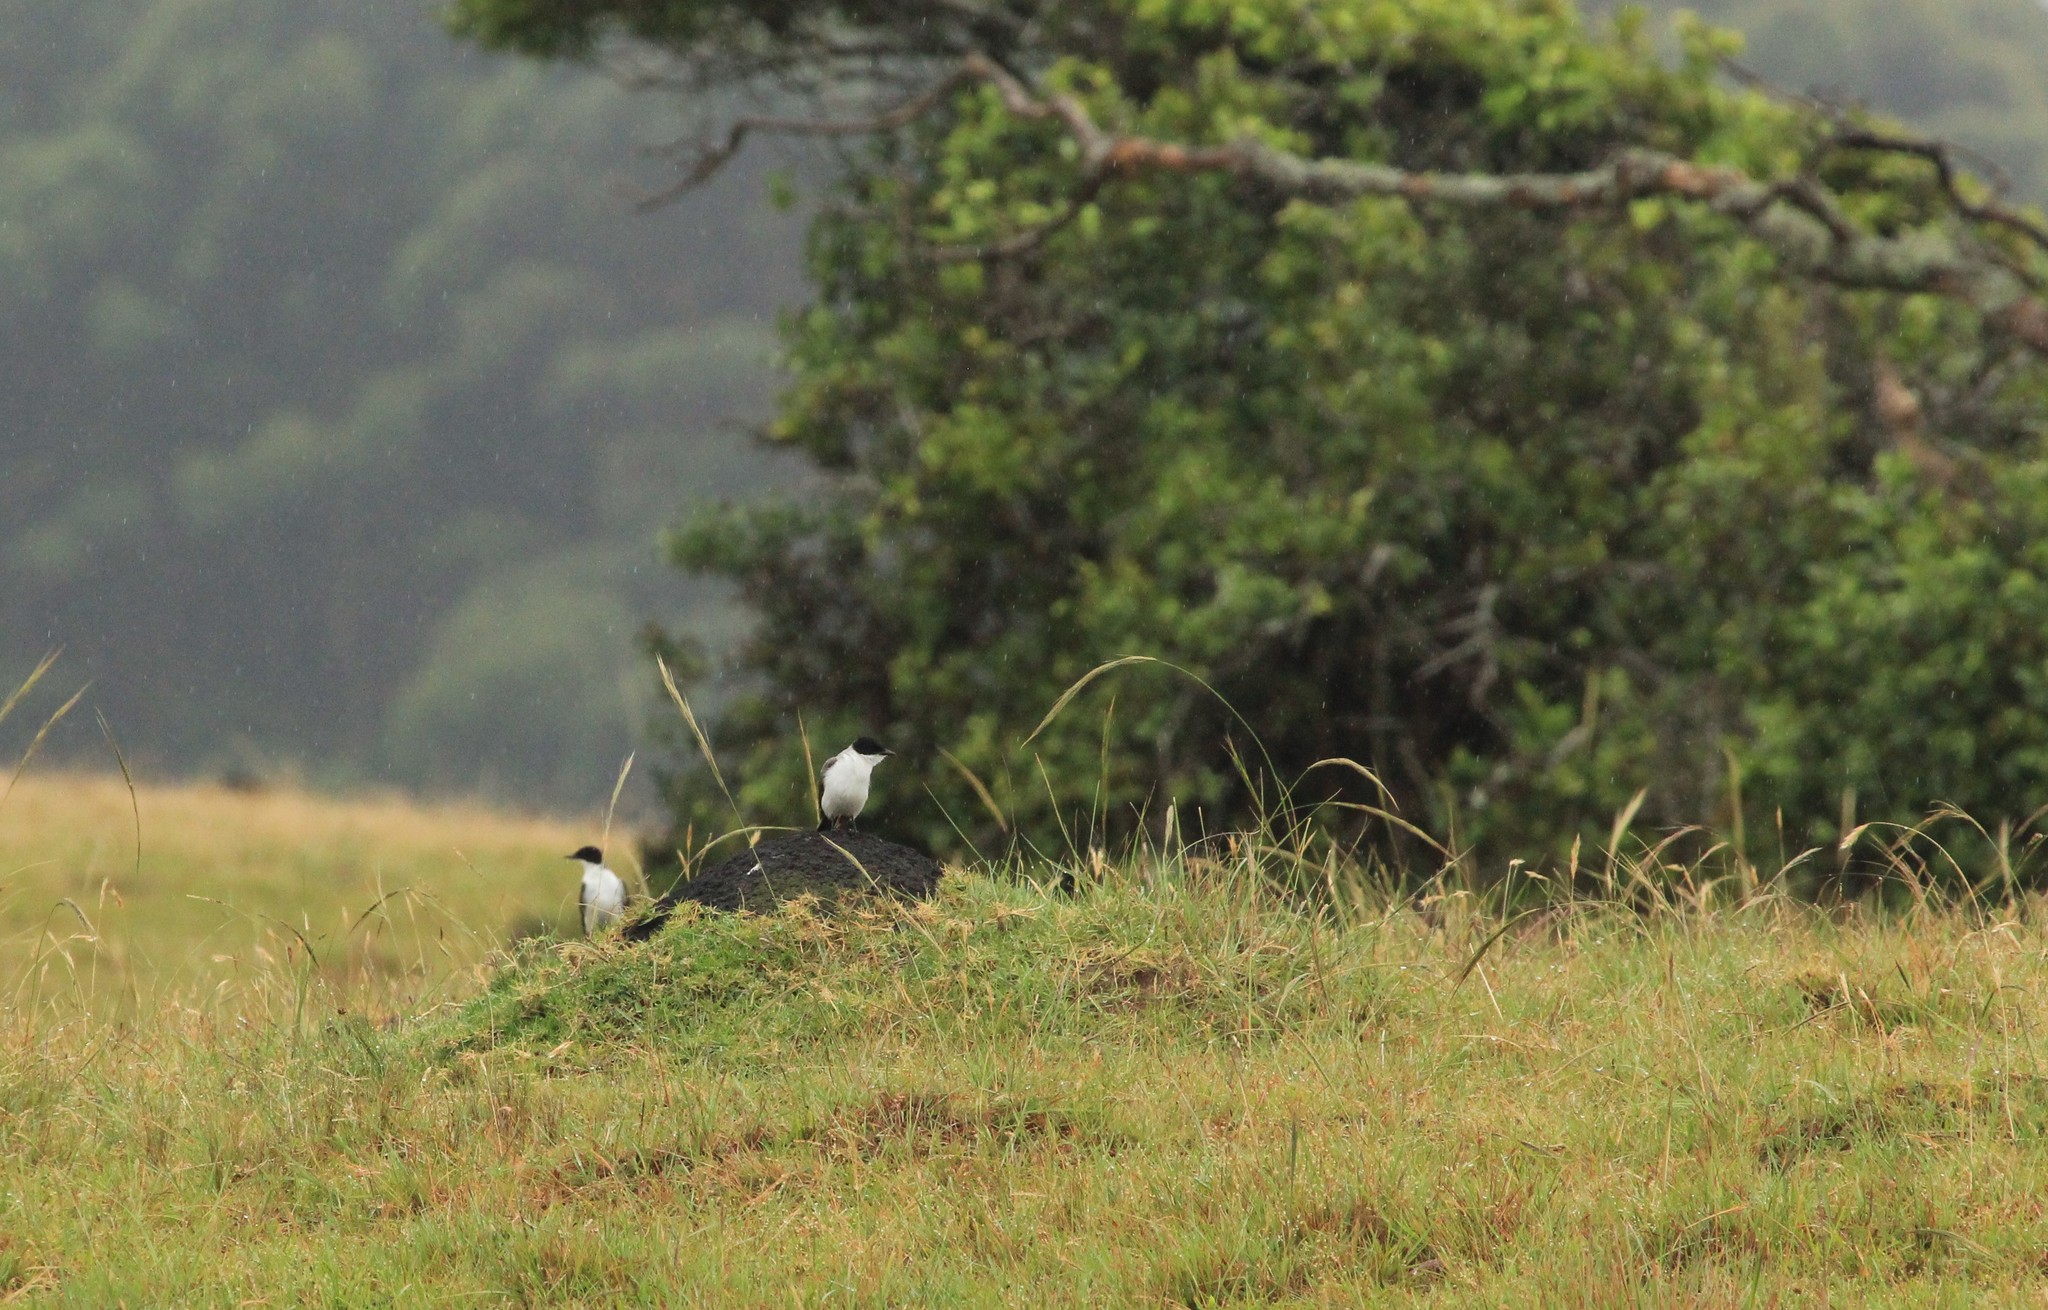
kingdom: Animalia
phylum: Chordata
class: Aves
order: Passeriformes
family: Tyrannidae
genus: Tyrannus
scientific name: Tyrannus savana
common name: Fork-tailed flycatcher
